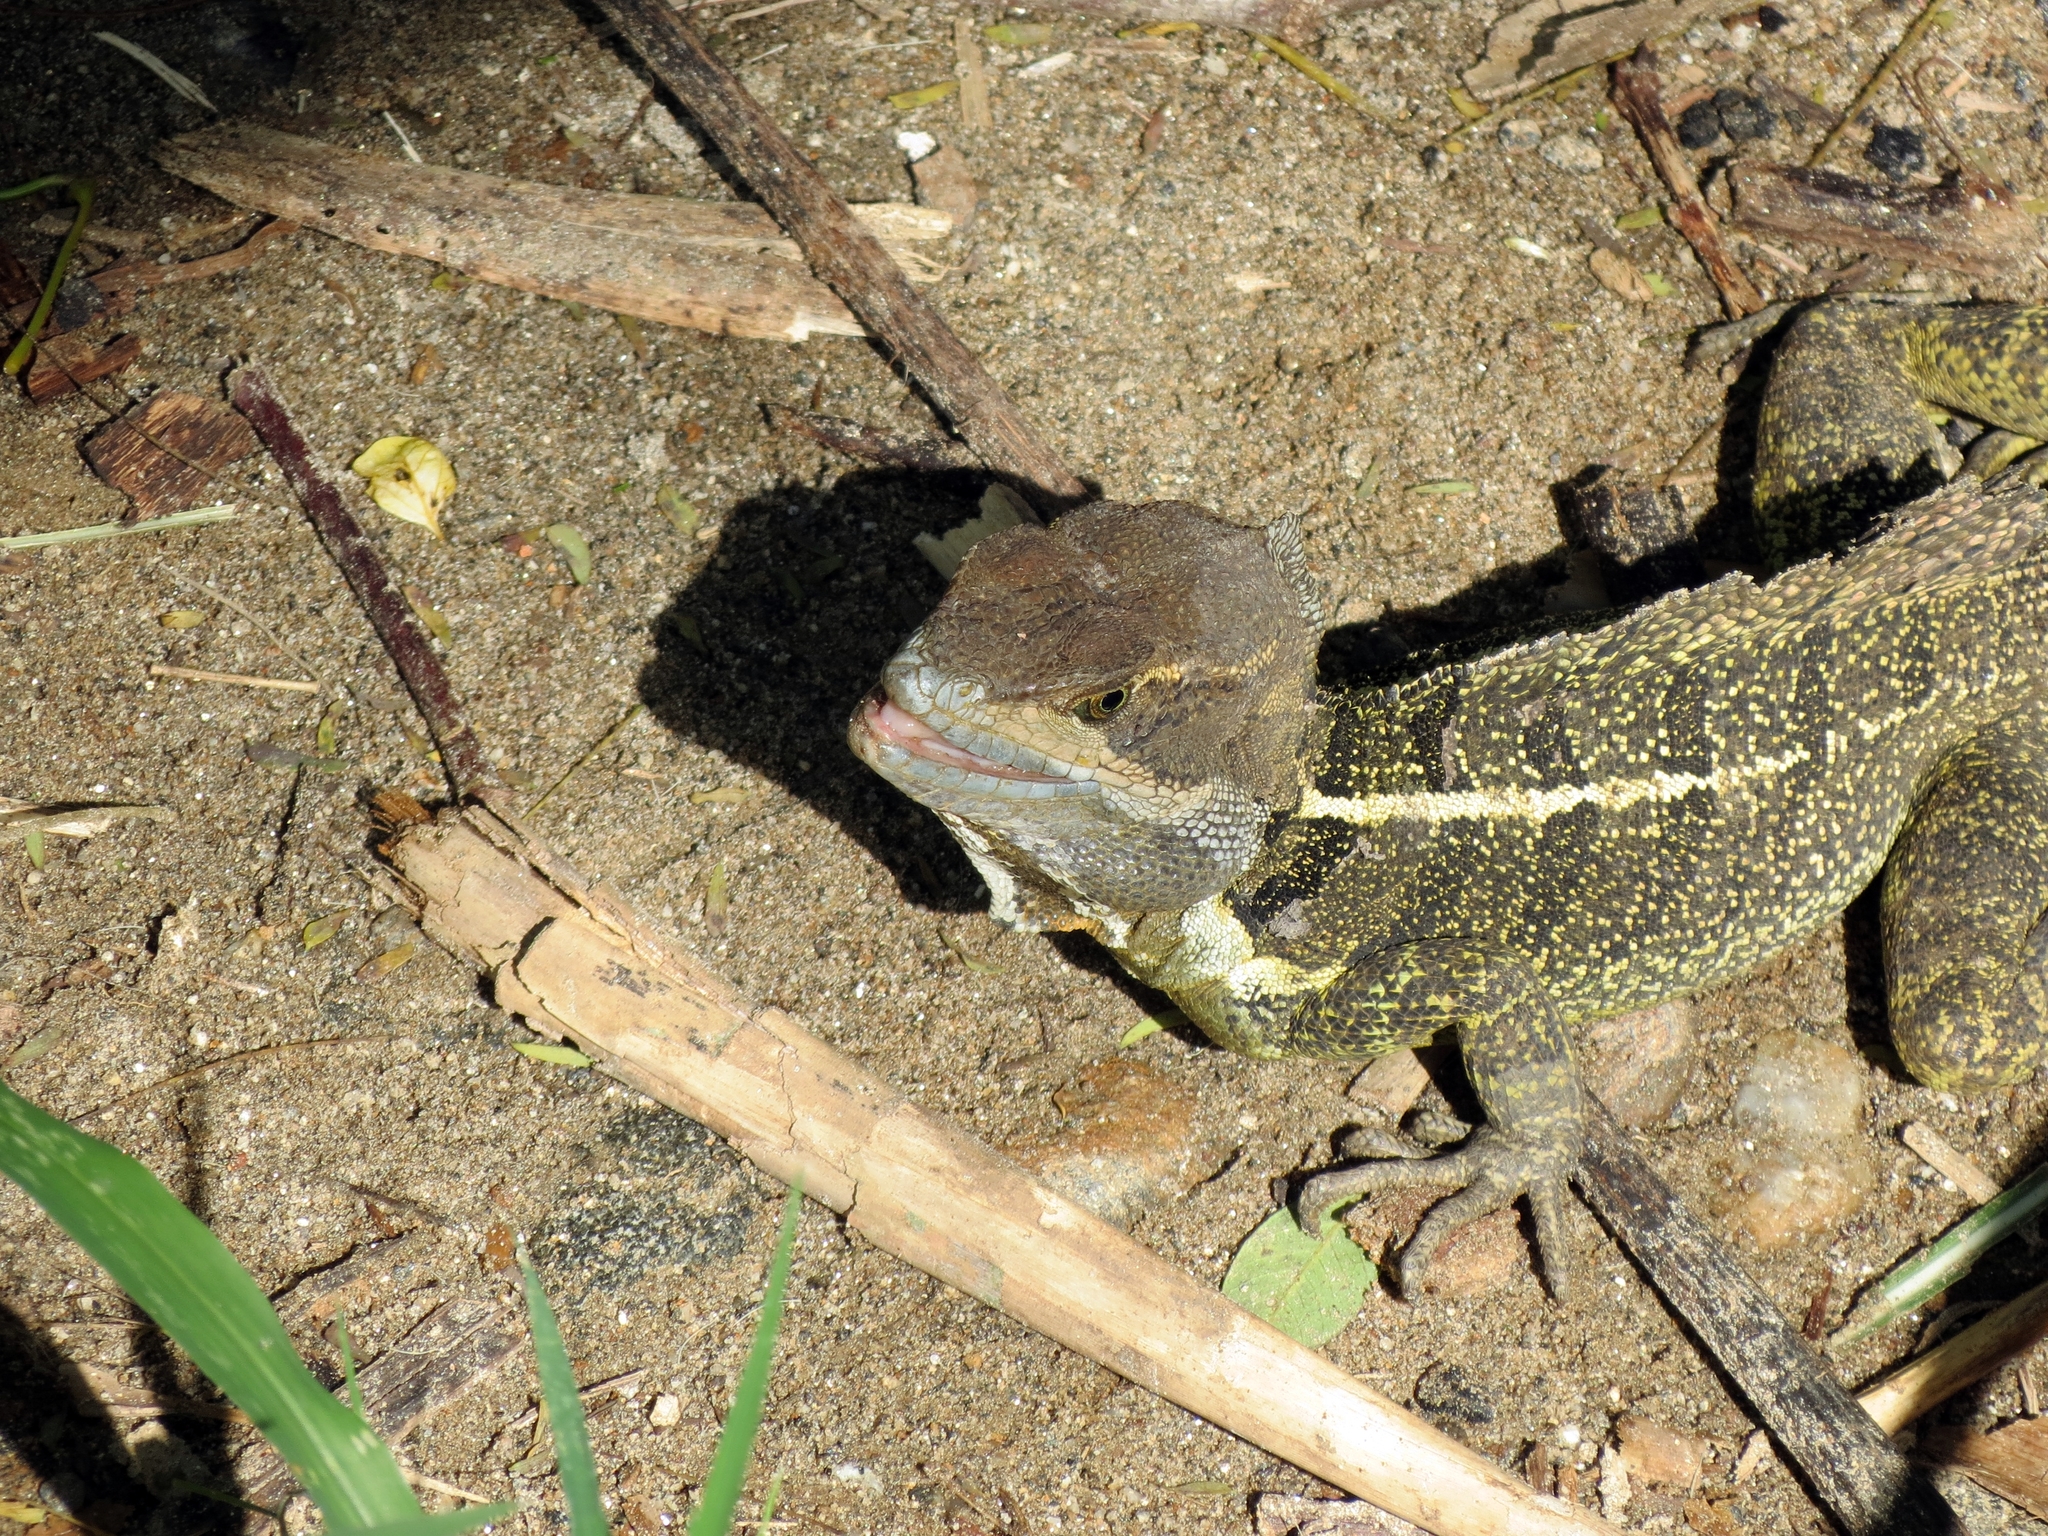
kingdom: Animalia
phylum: Chordata
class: Squamata
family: Corytophanidae
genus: Basiliscus
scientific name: Basiliscus basiliscus
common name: Common basilisk
